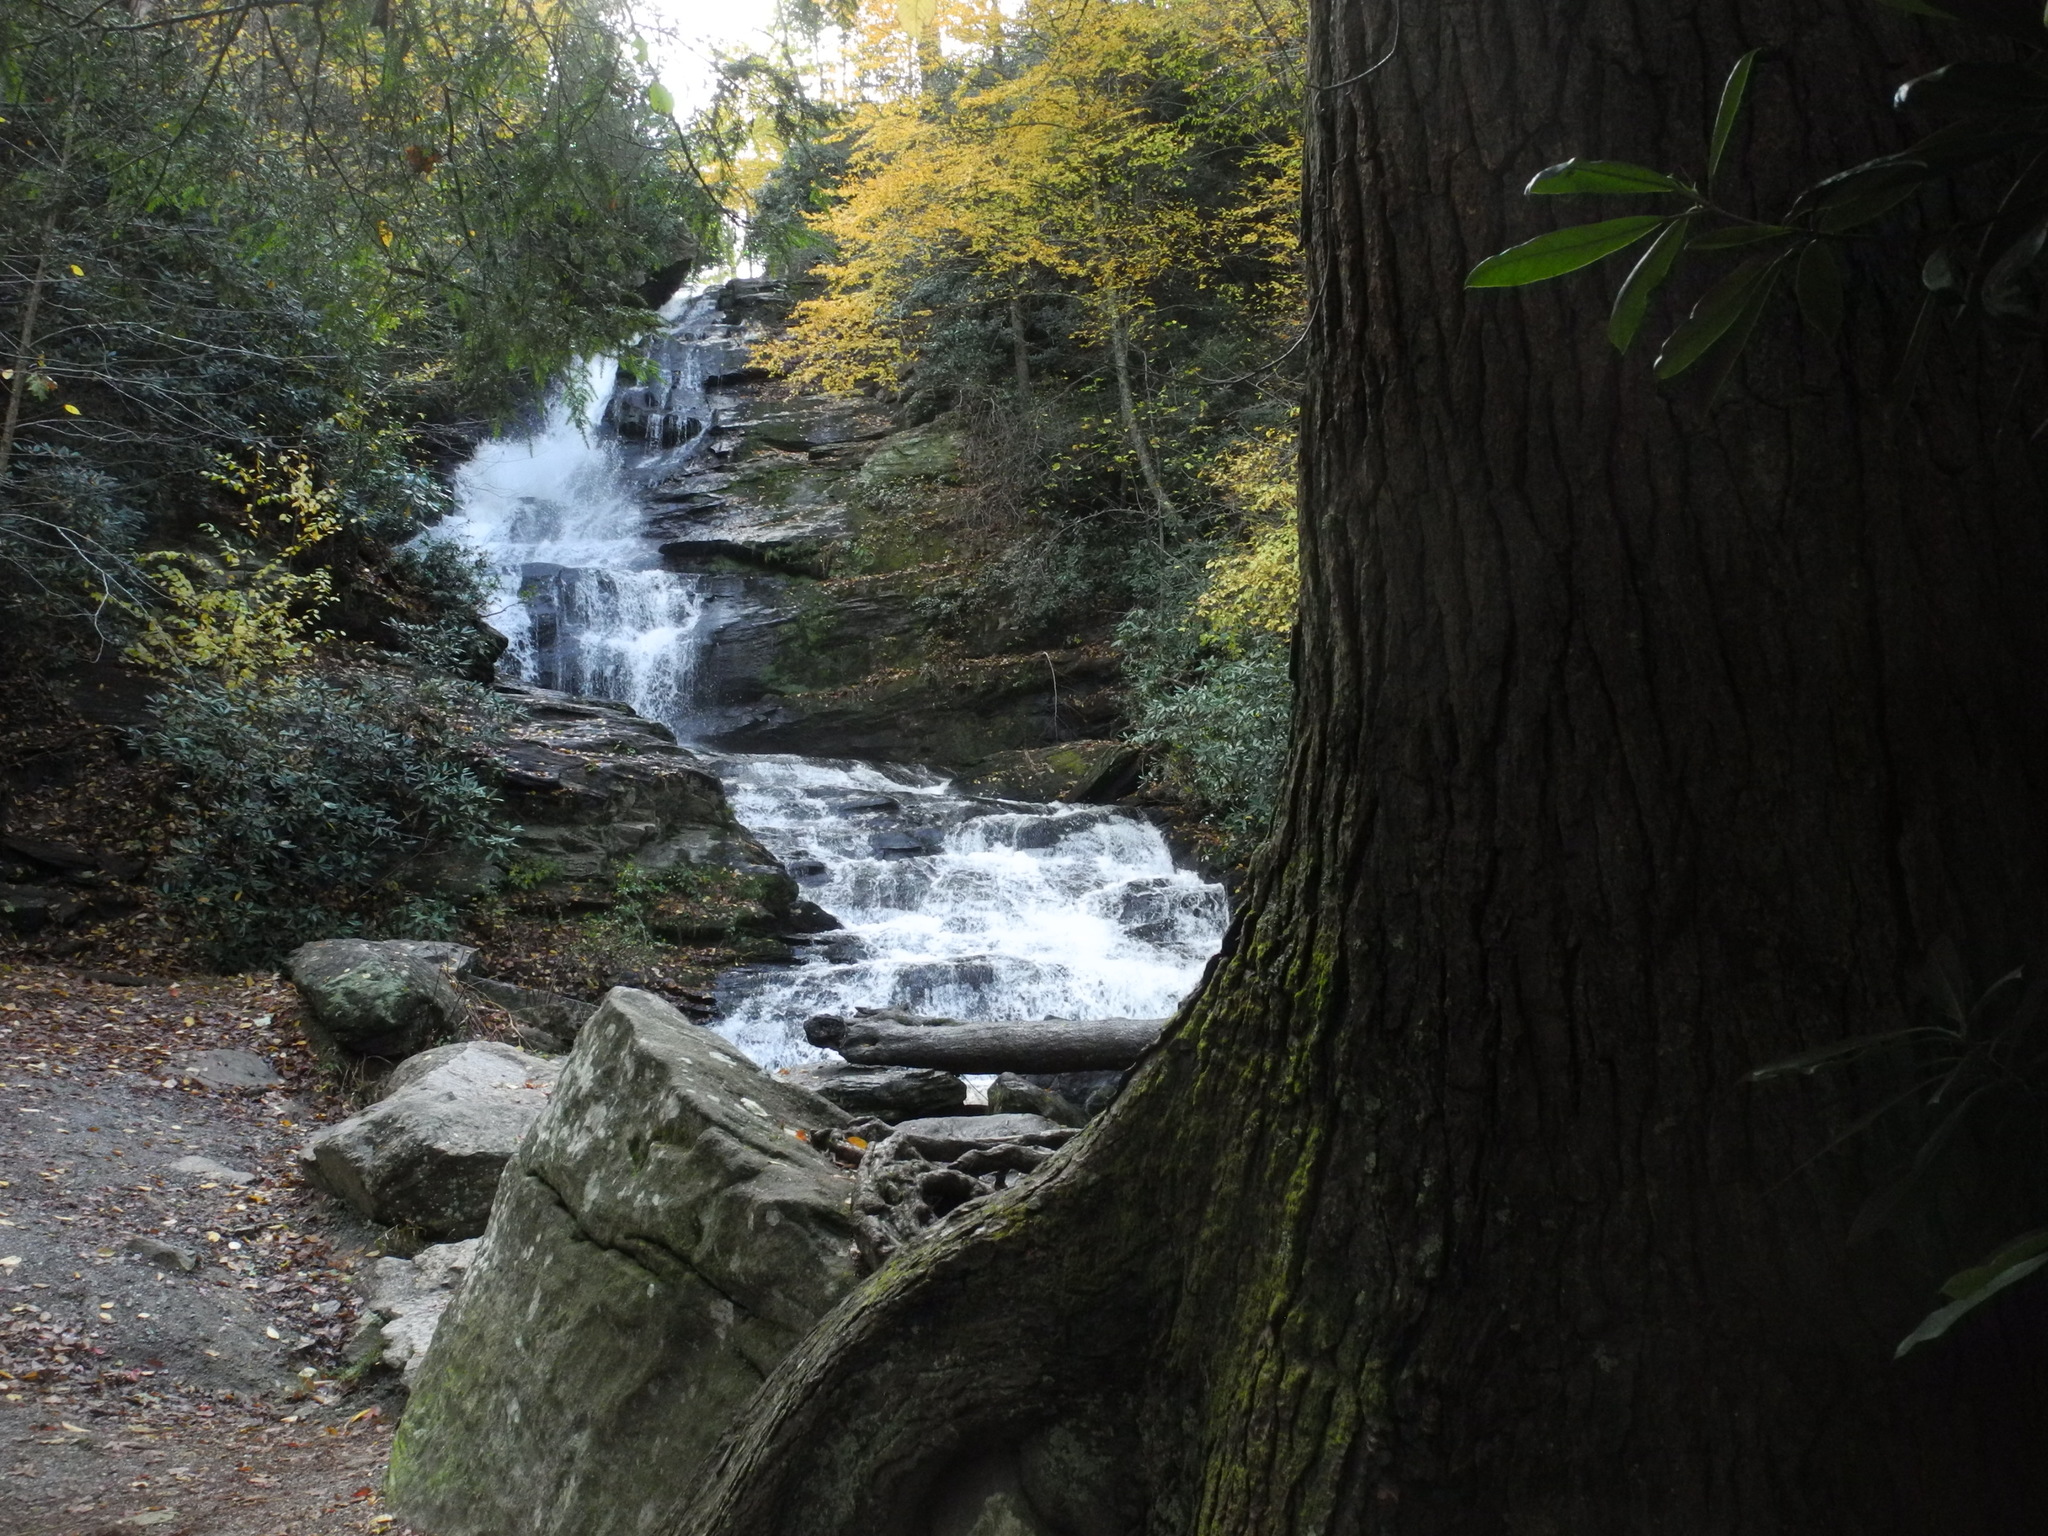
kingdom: Plantae
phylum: Tracheophyta
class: Pinopsida
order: Pinales
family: Pinaceae
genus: Tsuga
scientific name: Tsuga canadensis
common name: Eastern hemlock
